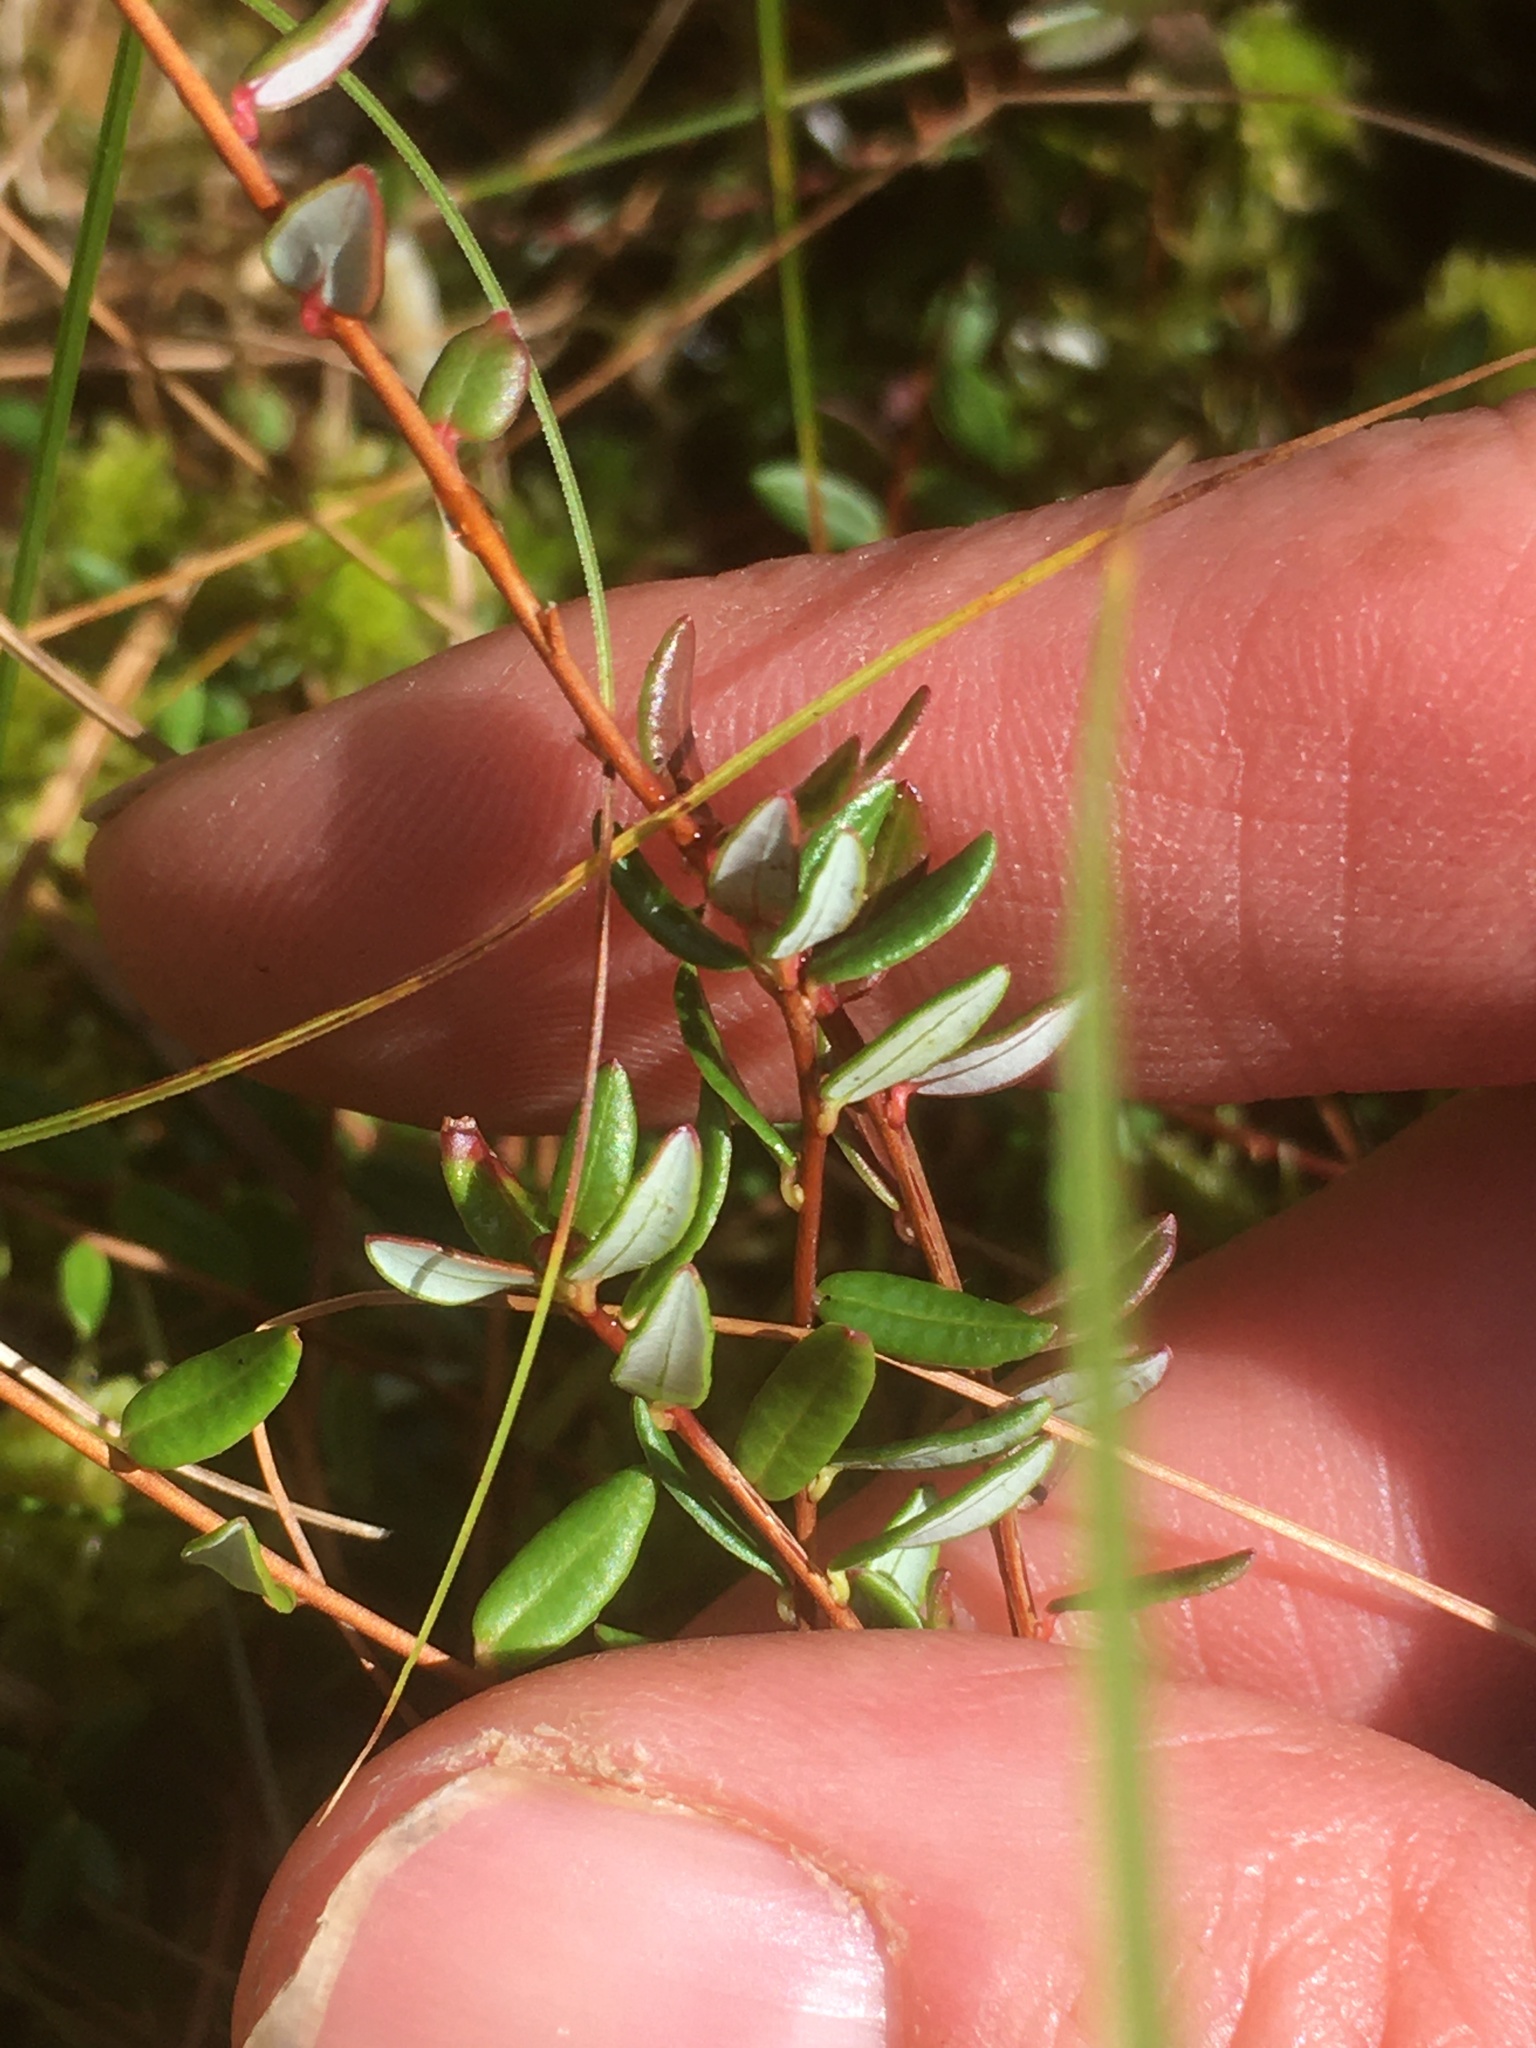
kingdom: Plantae
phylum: Tracheophyta
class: Magnoliopsida
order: Ericales
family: Ericaceae
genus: Vaccinium
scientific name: Vaccinium oxycoccos
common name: Cranberry
